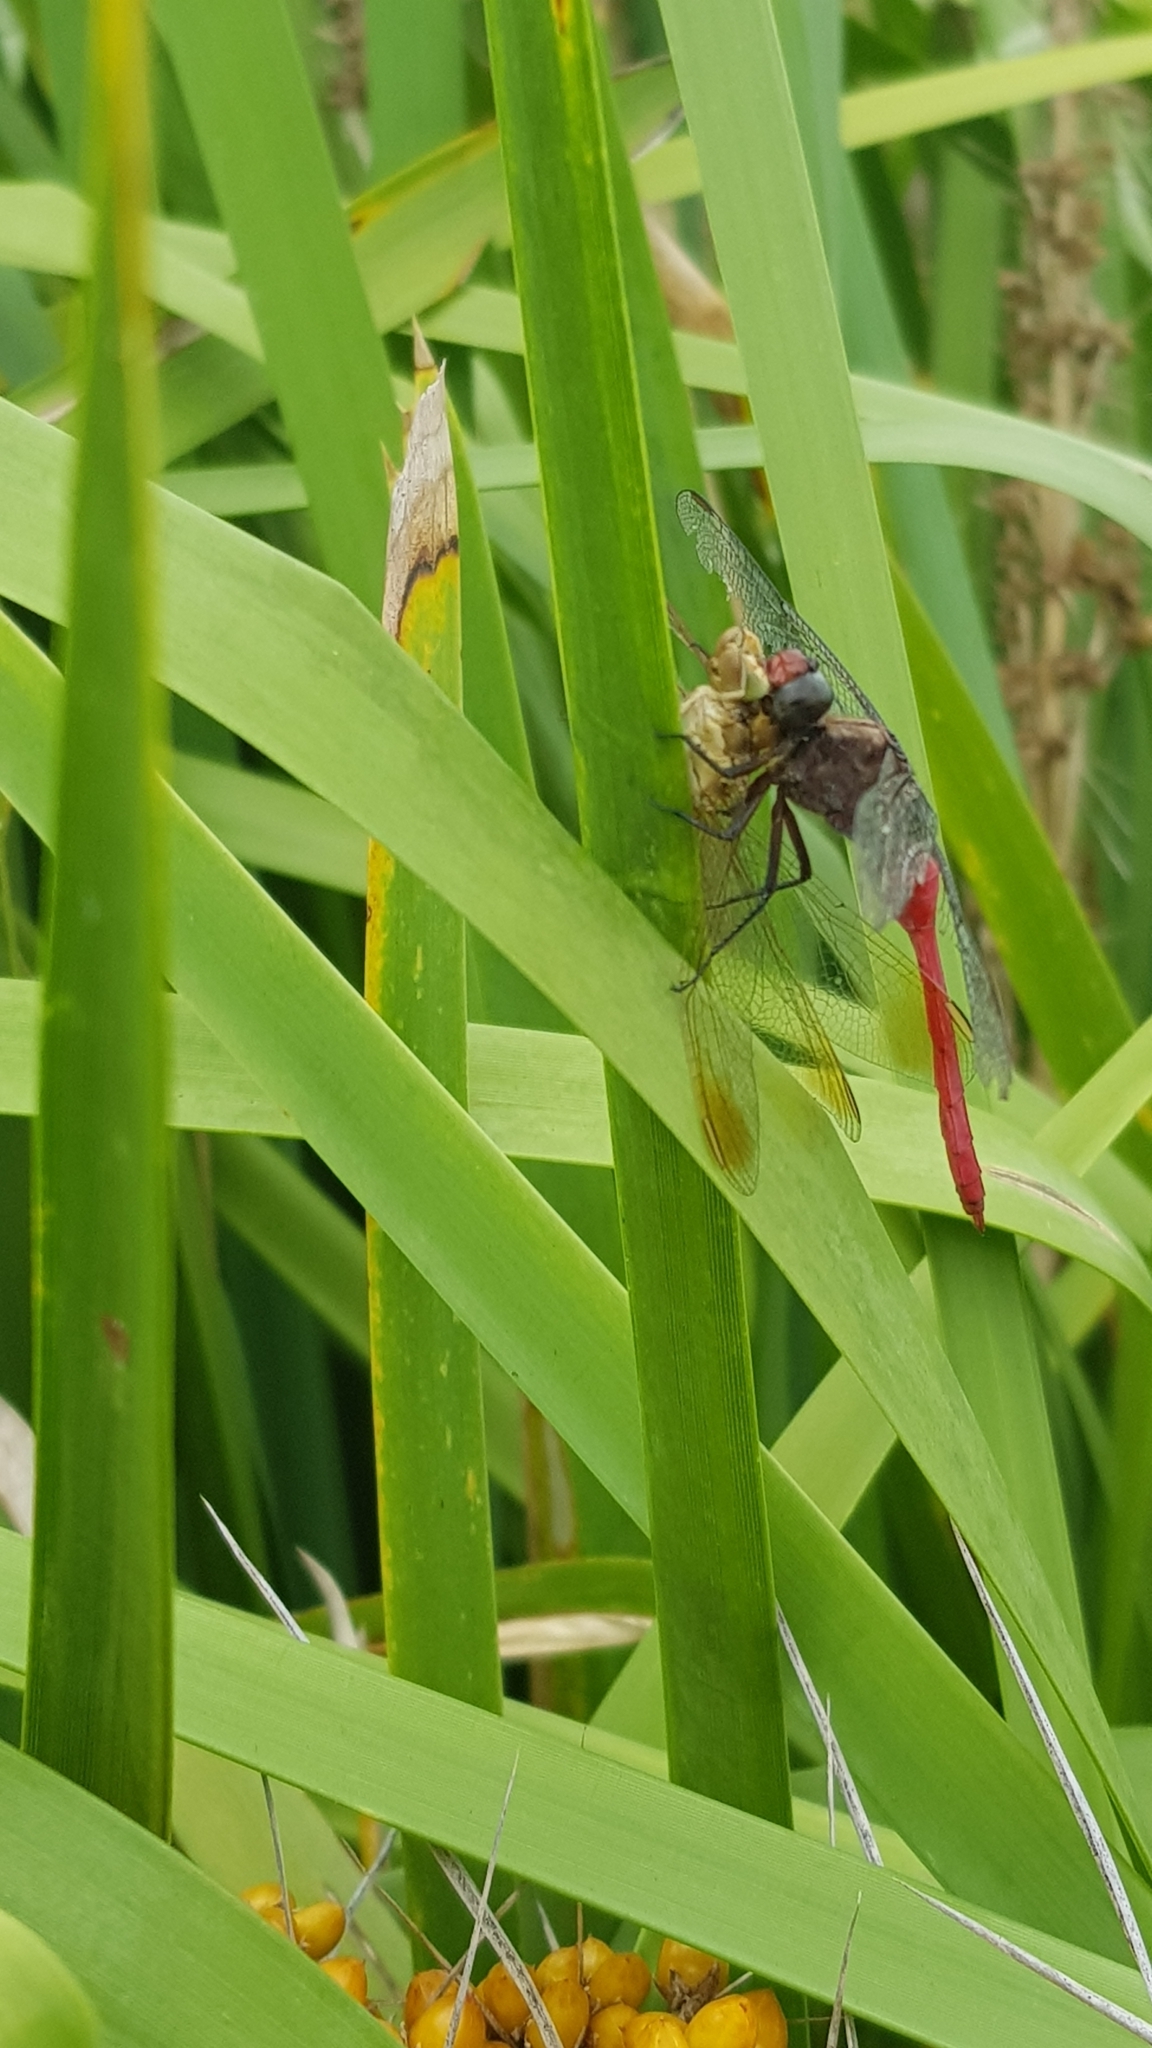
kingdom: Animalia
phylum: Arthropoda
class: Insecta
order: Odonata
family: Libellulidae
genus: Orthetrum
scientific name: Orthetrum villosovittatum
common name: Firery skimmer
